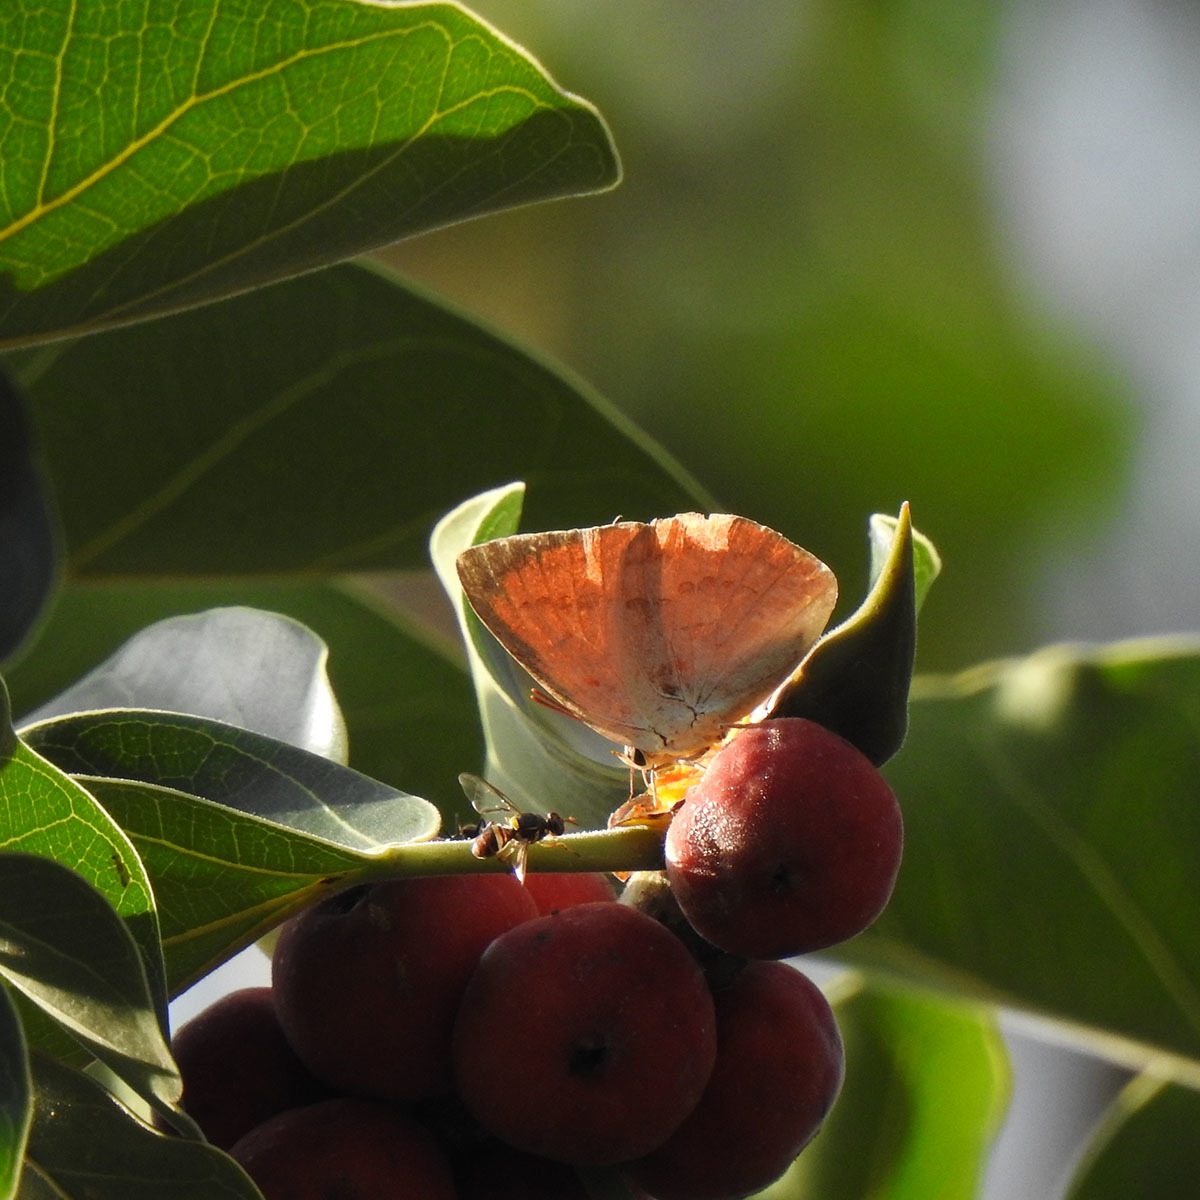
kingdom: Animalia
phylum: Arthropoda
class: Insecta
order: Lepidoptera
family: Lycaenidae
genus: Curetis
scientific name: Curetis thetis
